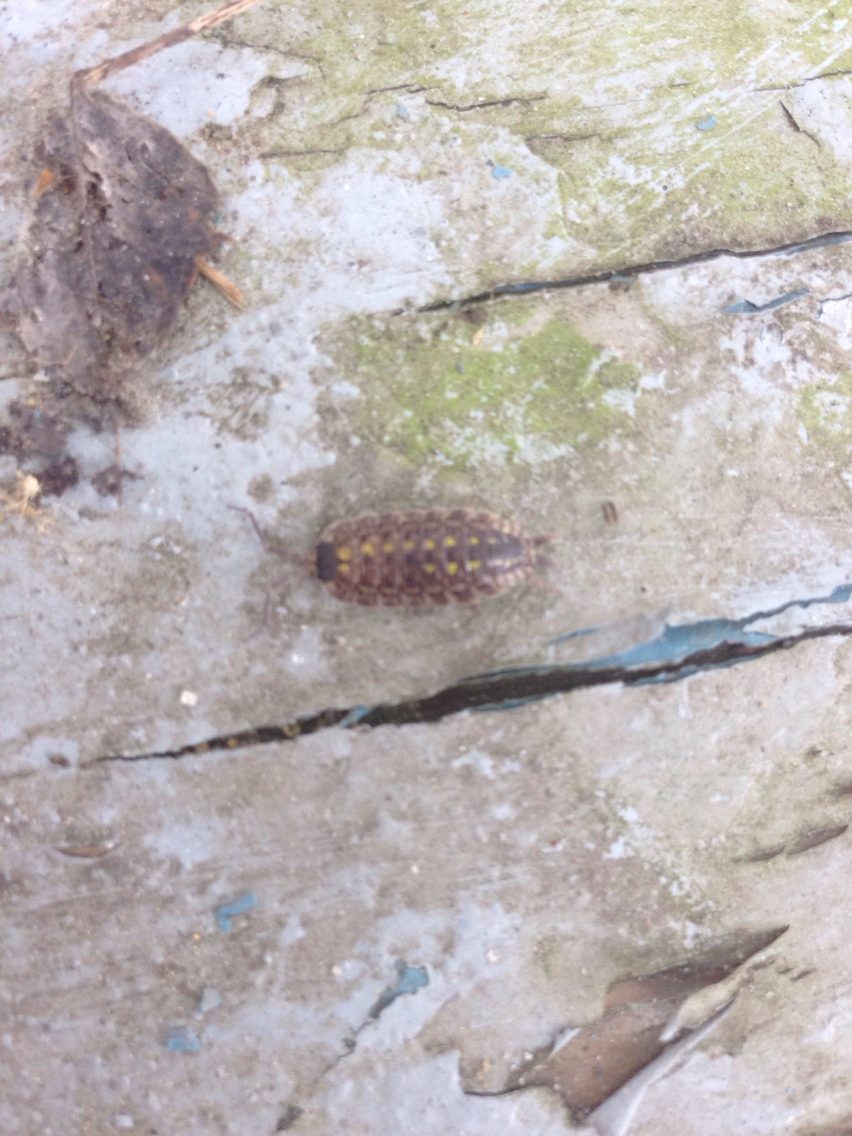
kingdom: Animalia
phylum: Arthropoda
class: Malacostraca
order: Isopoda
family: Porcellionidae
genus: Porcellio
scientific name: Porcellio spinicornis
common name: Painted woodlouse
